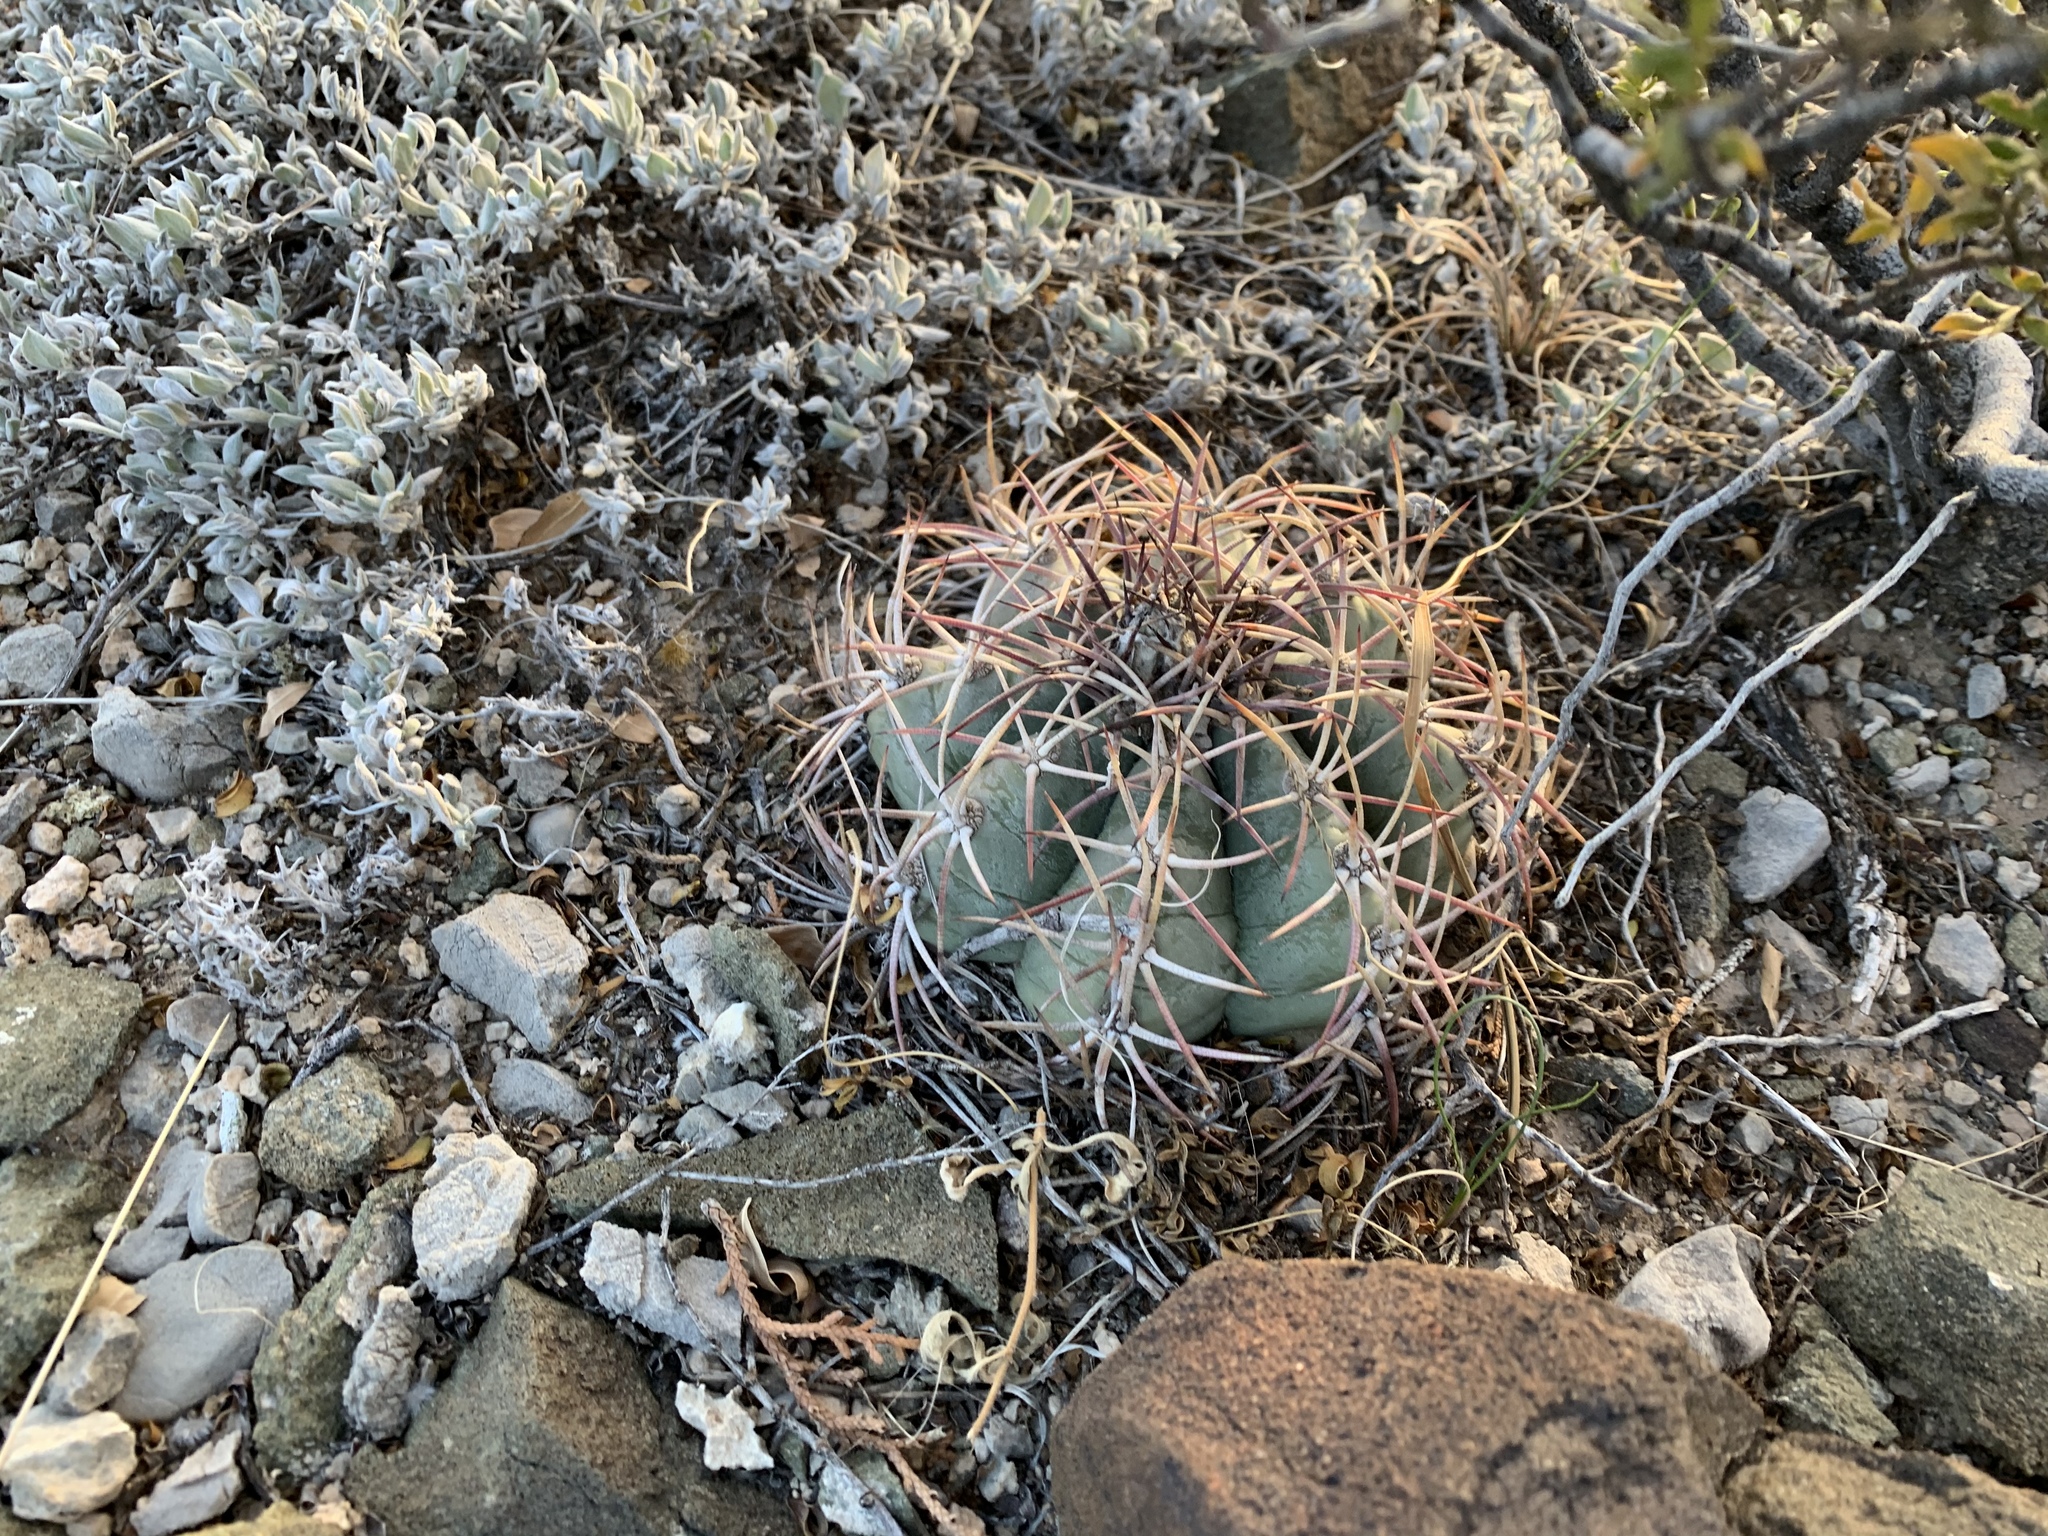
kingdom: Plantae
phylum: Tracheophyta
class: Magnoliopsida
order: Caryophyllales
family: Cactaceae
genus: Echinocactus
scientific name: Echinocactus horizonthalonius
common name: Devilshead
